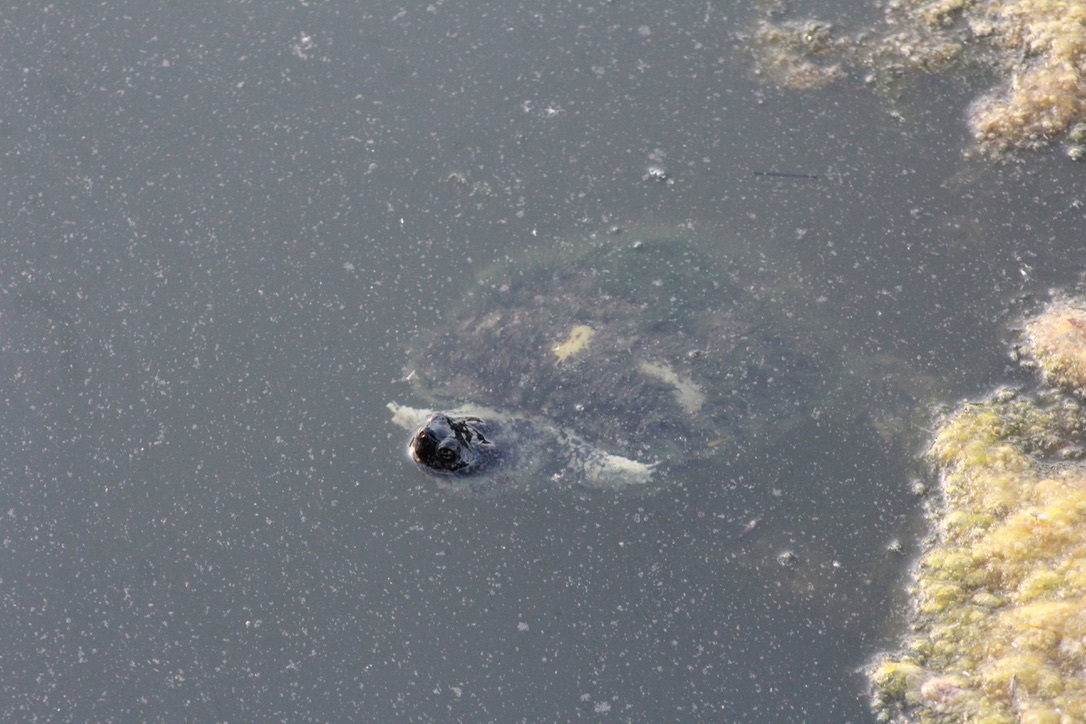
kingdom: Animalia
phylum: Chordata
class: Testudines
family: Emydidae
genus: Trachemys
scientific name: Trachemys scripta
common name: Slider
